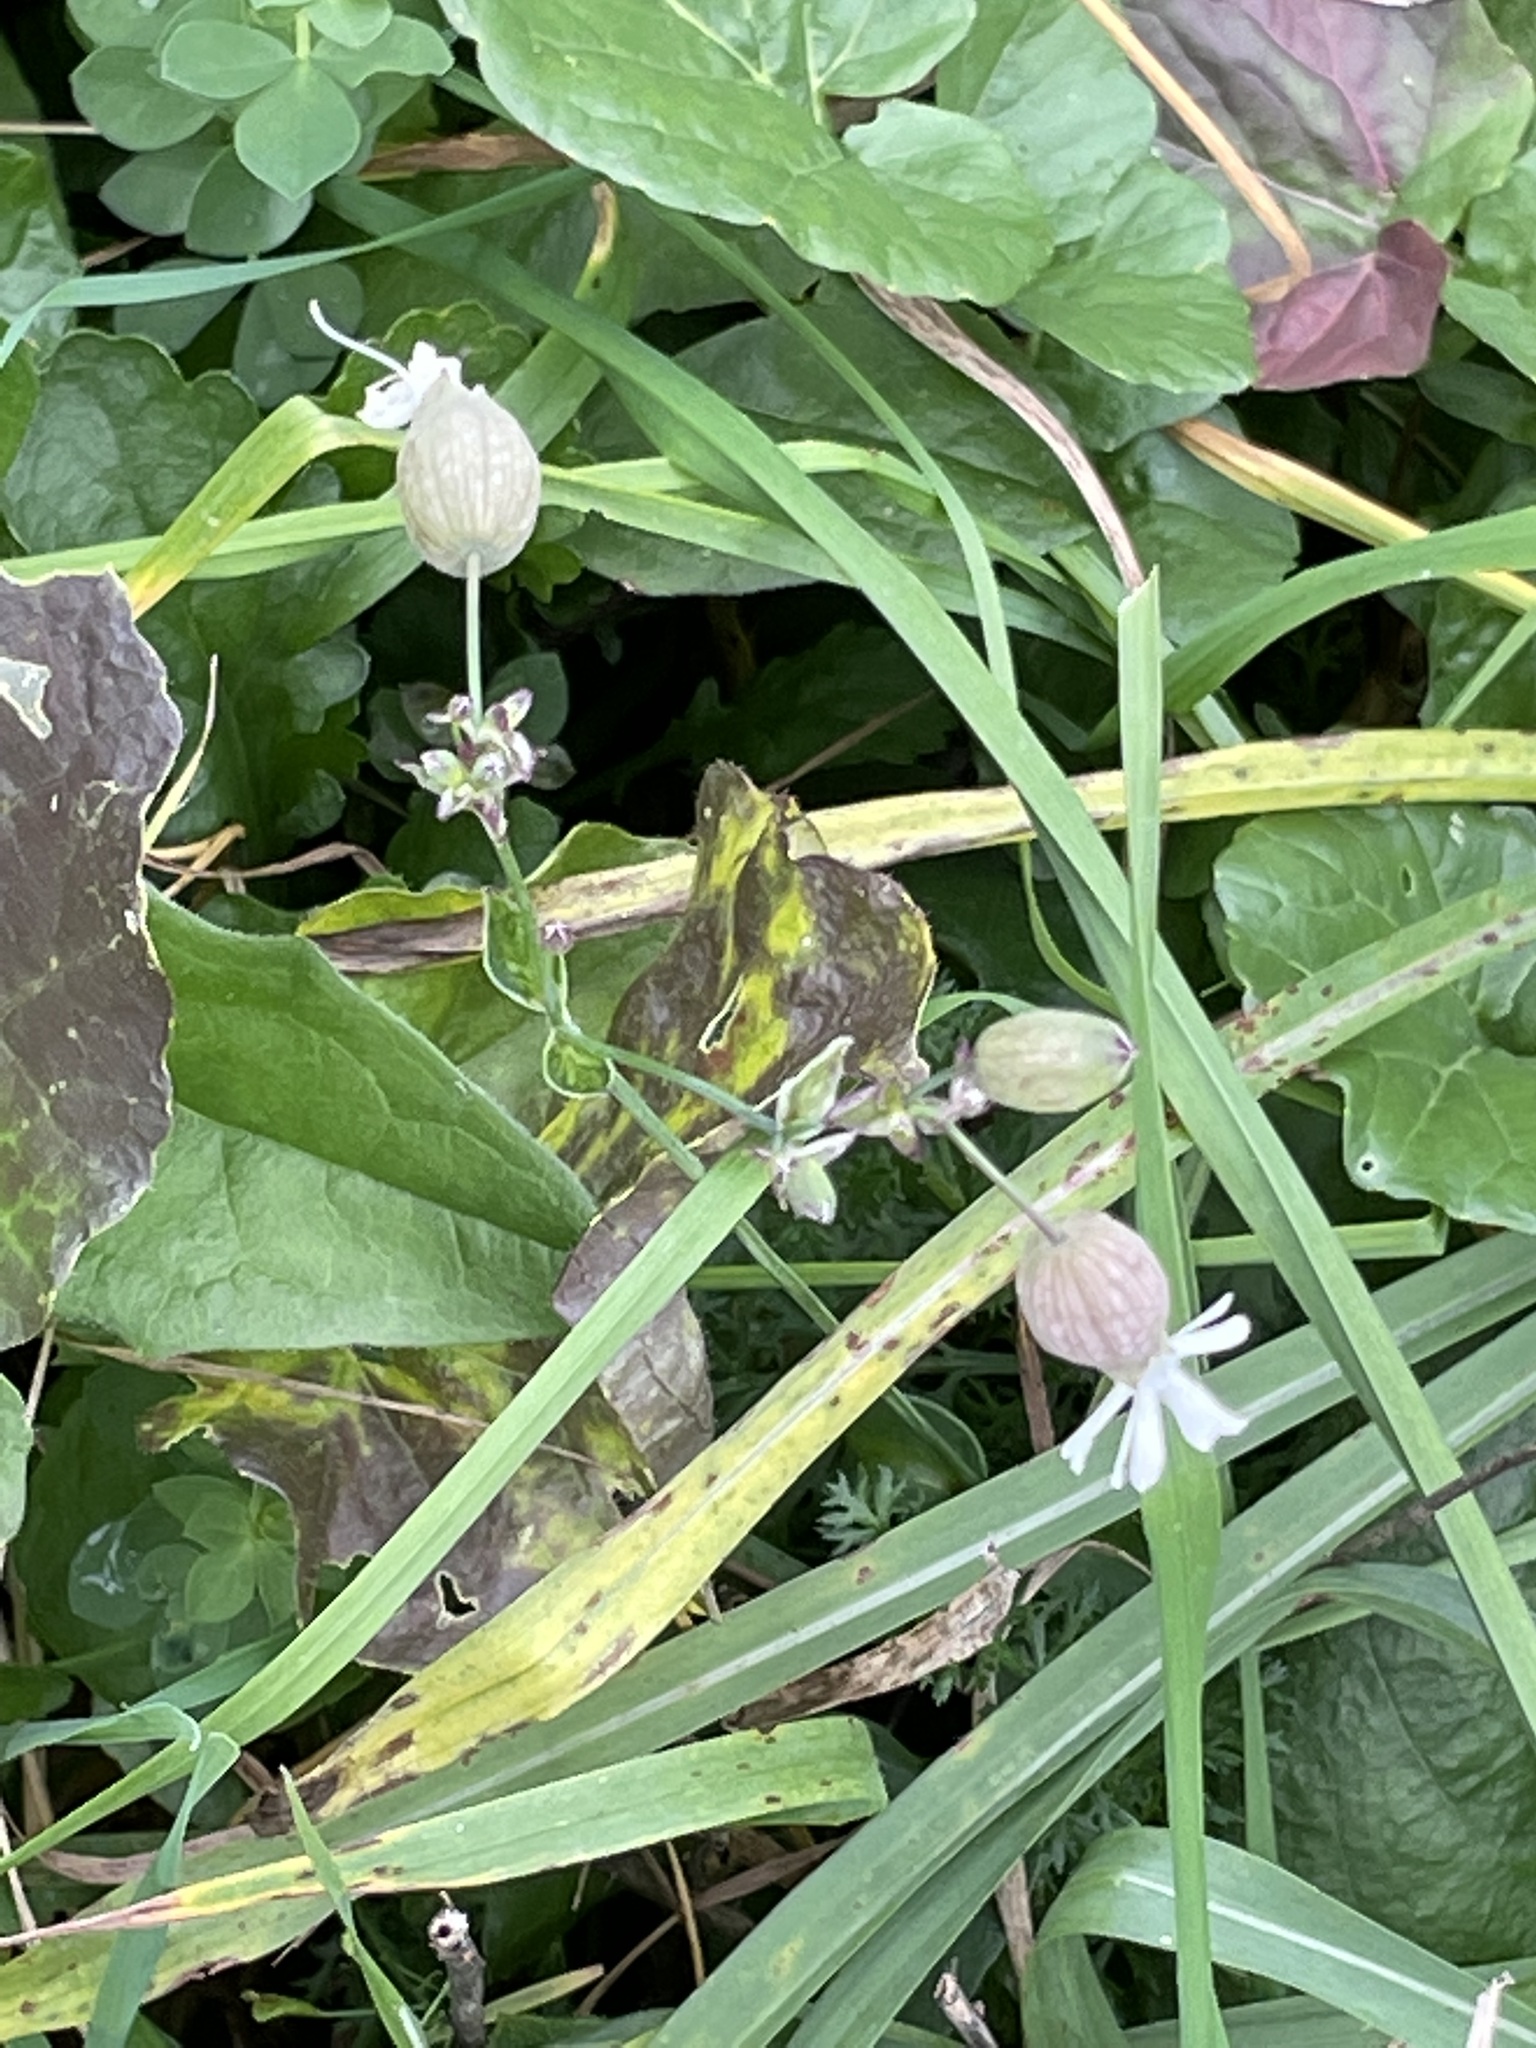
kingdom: Plantae
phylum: Tracheophyta
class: Magnoliopsida
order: Caryophyllales
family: Caryophyllaceae
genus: Silene
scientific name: Silene vulgaris
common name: Bladder campion
